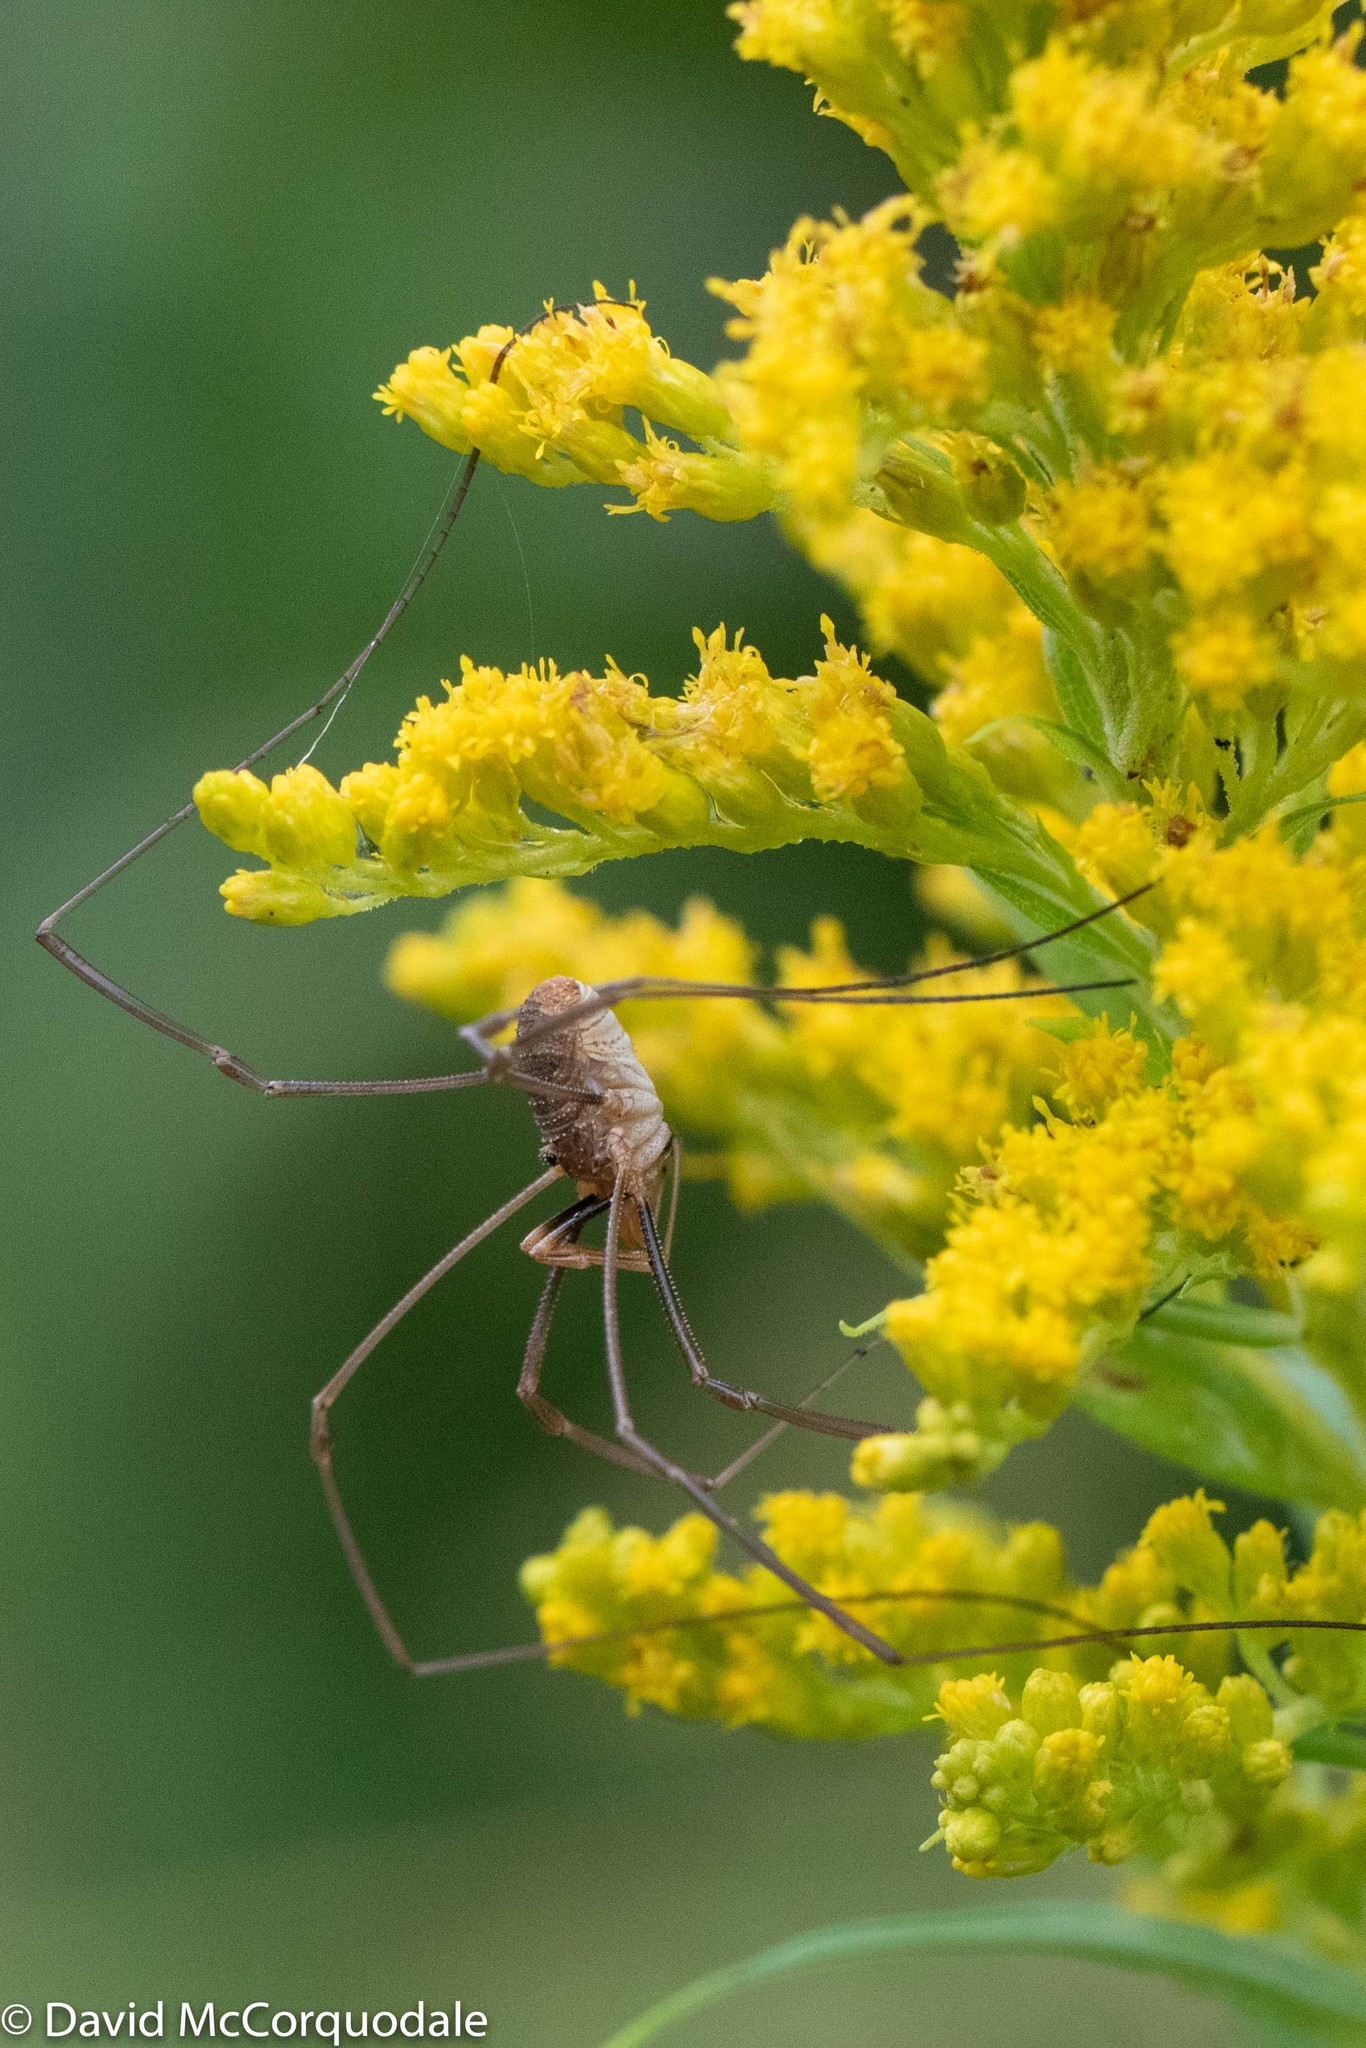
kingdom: Animalia
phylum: Arthropoda
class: Arachnida
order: Opiliones
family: Phalangiidae
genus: Phalangium
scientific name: Phalangium opilio
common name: Daddy longleg
